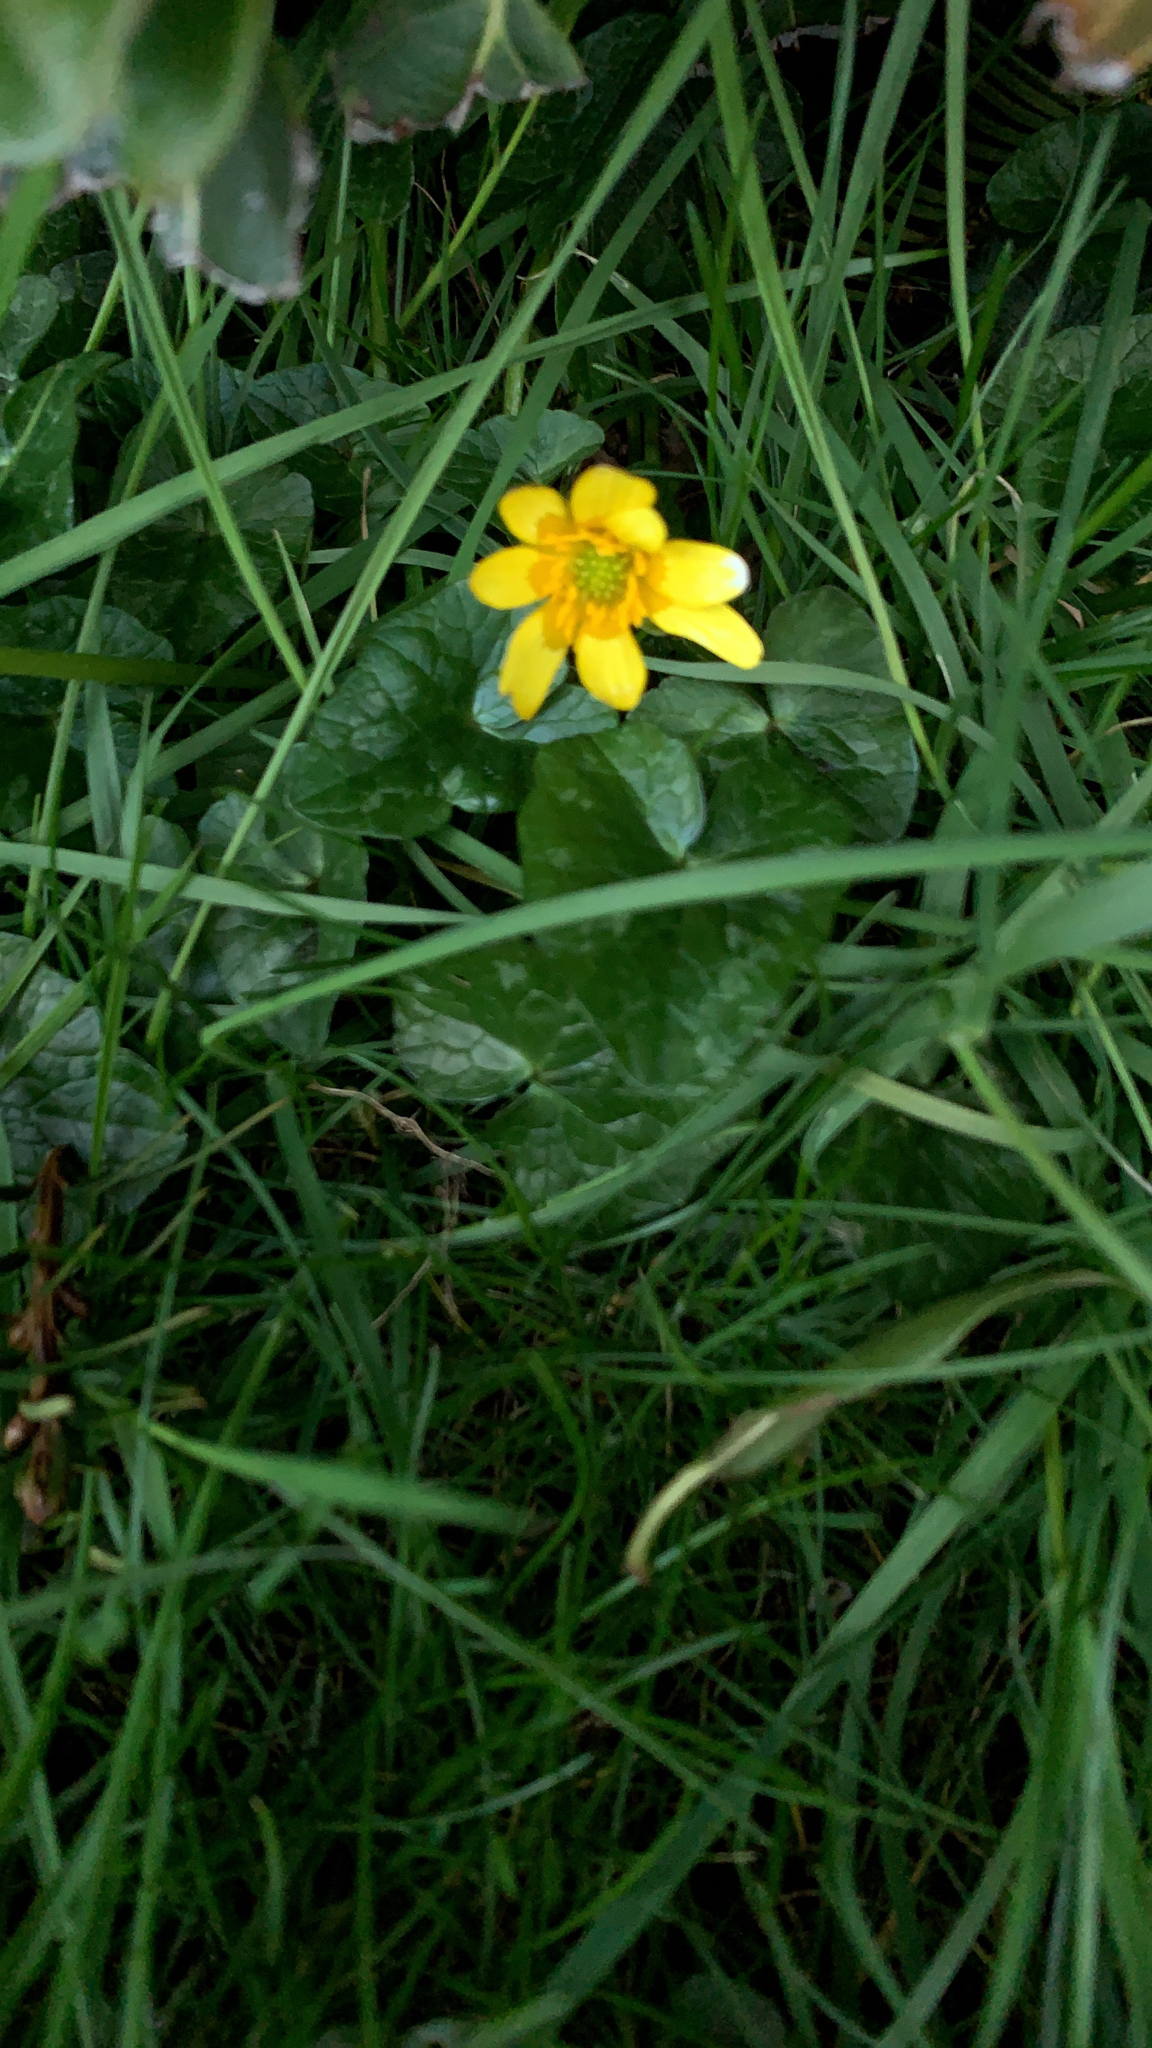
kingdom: Plantae
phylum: Tracheophyta
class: Magnoliopsida
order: Ranunculales
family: Ranunculaceae
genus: Ficaria
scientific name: Ficaria verna
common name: Lesser celandine
